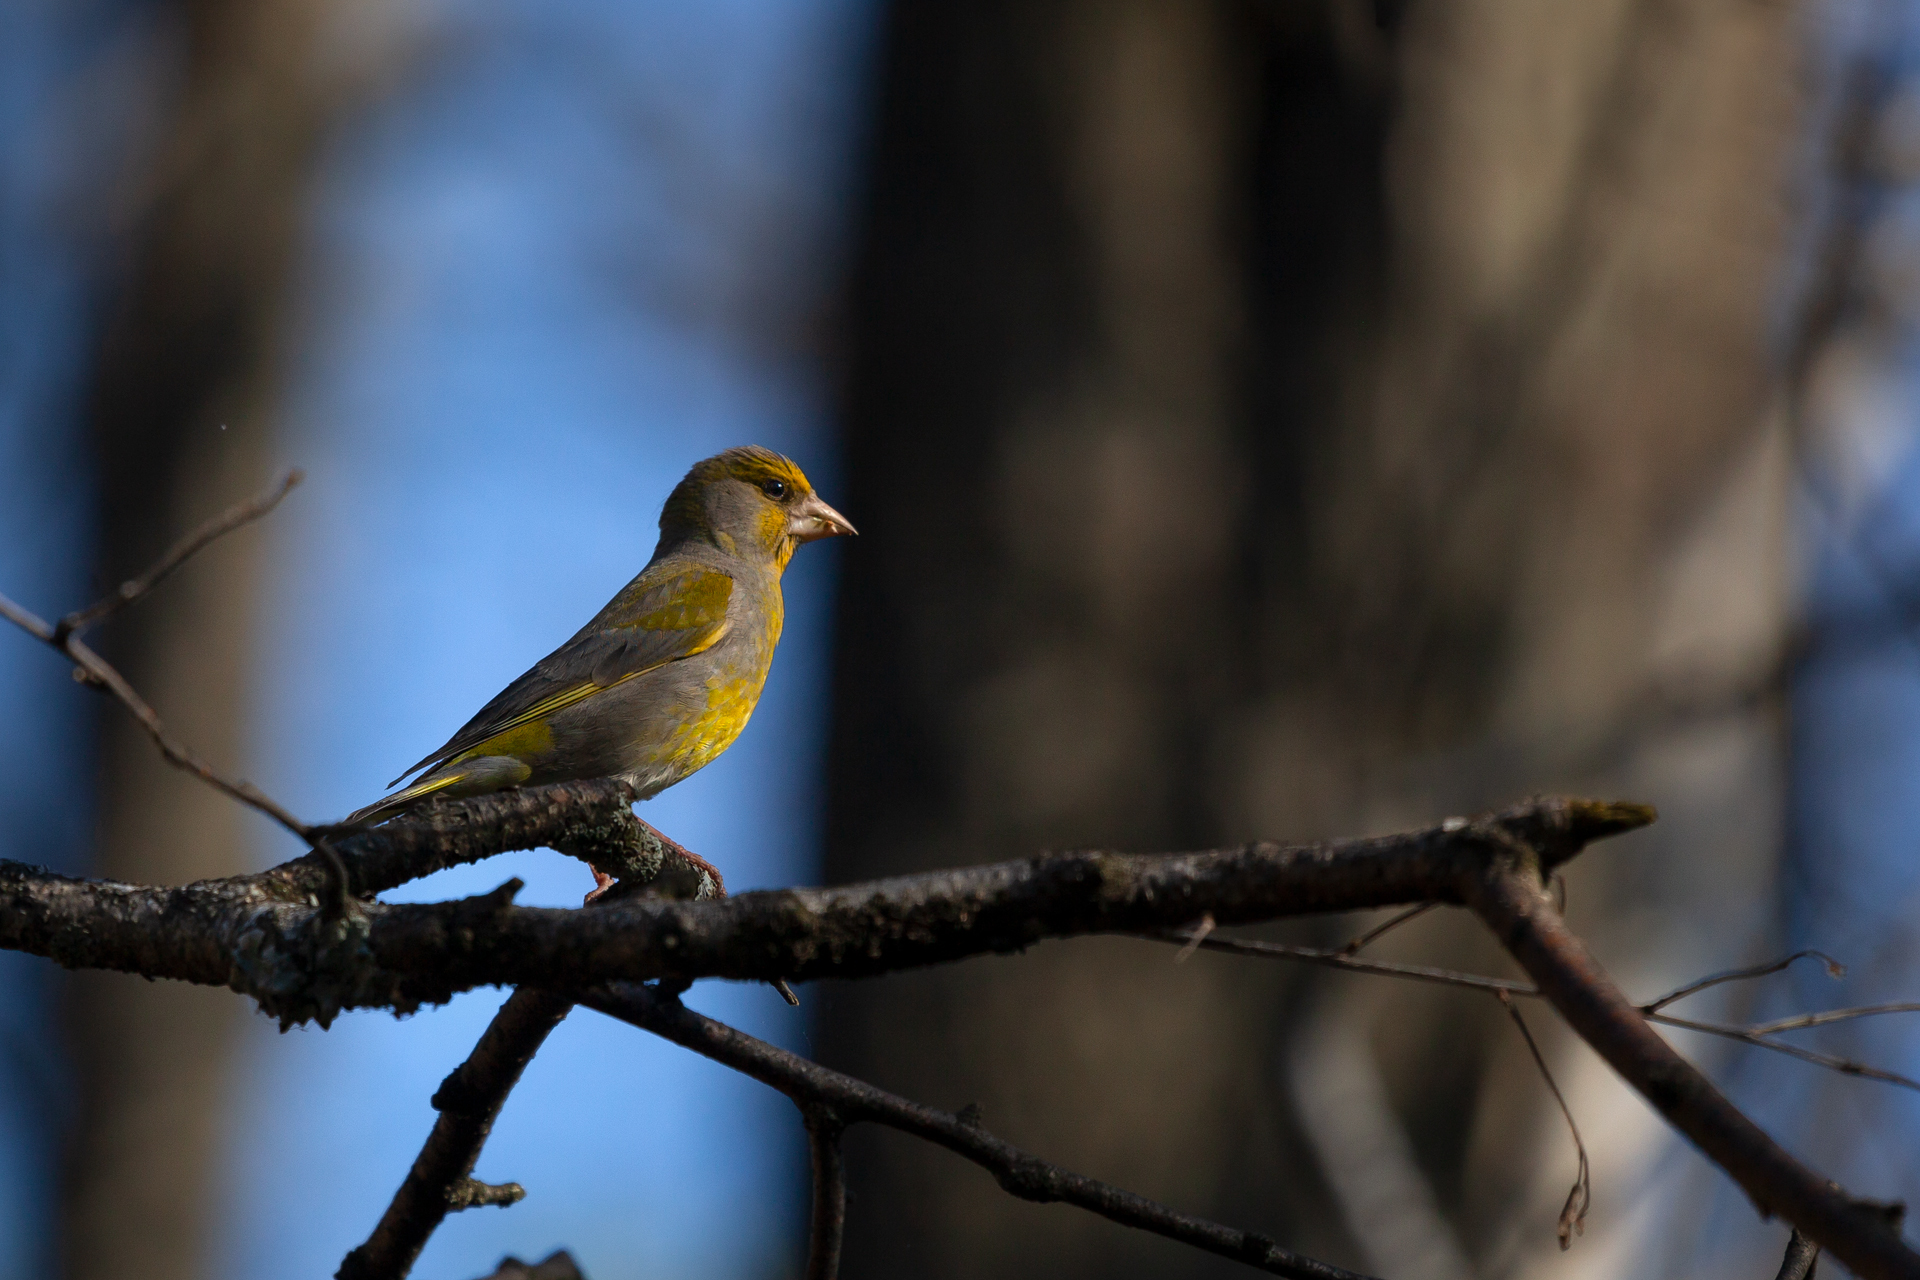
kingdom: Plantae
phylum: Tracheophyta
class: Liliopsida
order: Poales
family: Poaceae
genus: Chloris
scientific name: Chloris chloris
